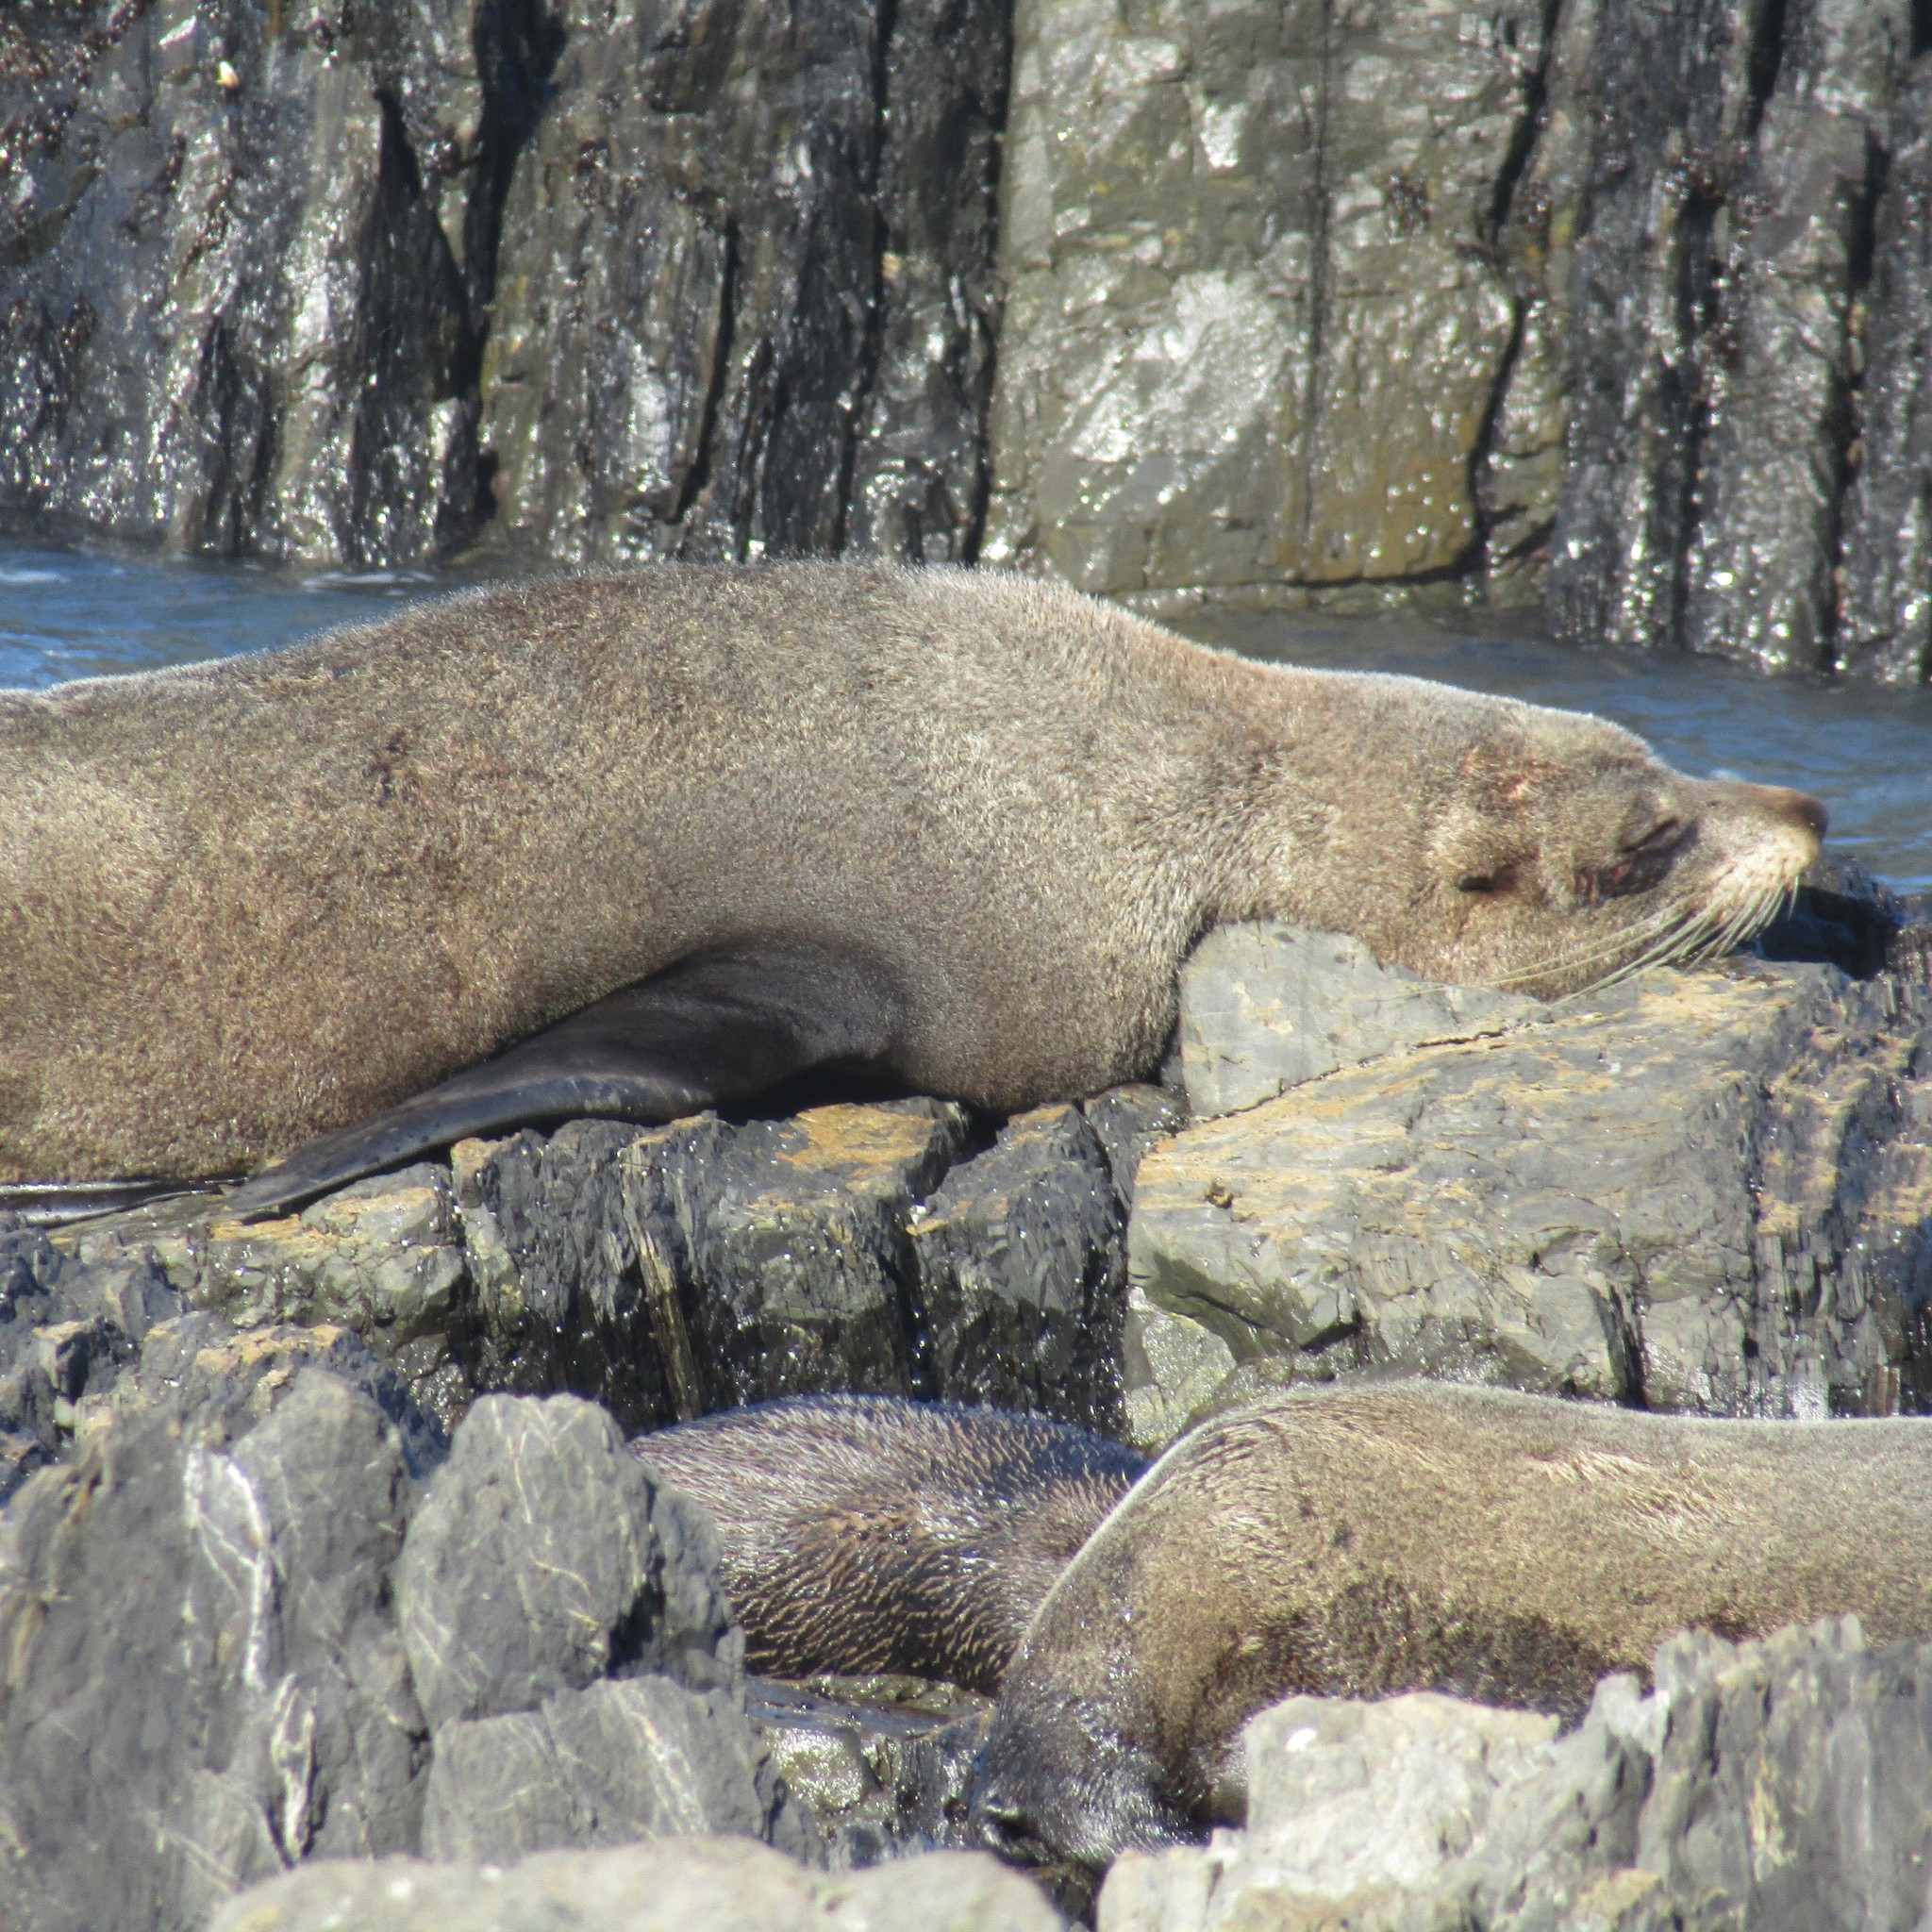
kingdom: Animalia
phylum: Chordata
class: Mammalia
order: Carnivora
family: Otariidae
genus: Arctocephalus
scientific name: Arctocephalus forsteri
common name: New zealand fur seal
